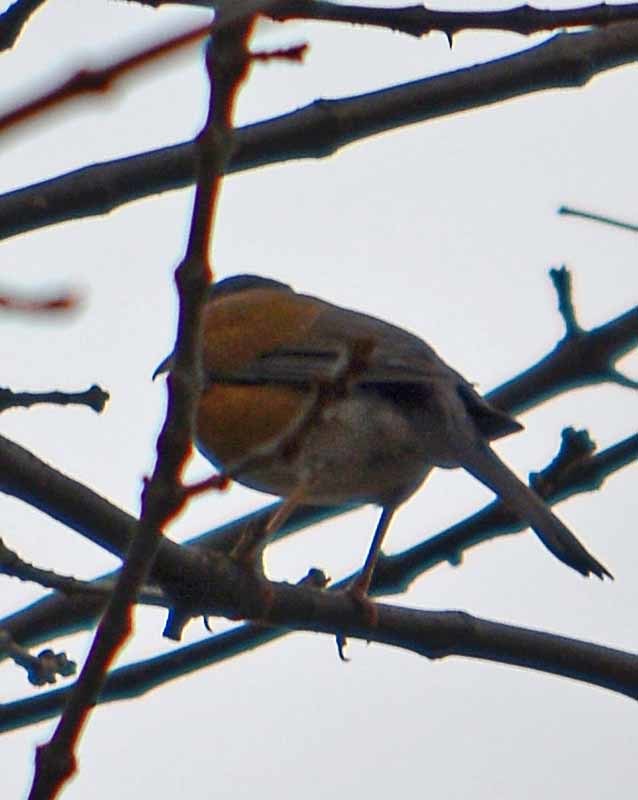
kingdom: Animalia
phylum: Chordata
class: Aves
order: Passeriformes
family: Turdidae
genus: Turdus
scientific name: Turdus rufopalliatus
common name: Rufous-backed robin
